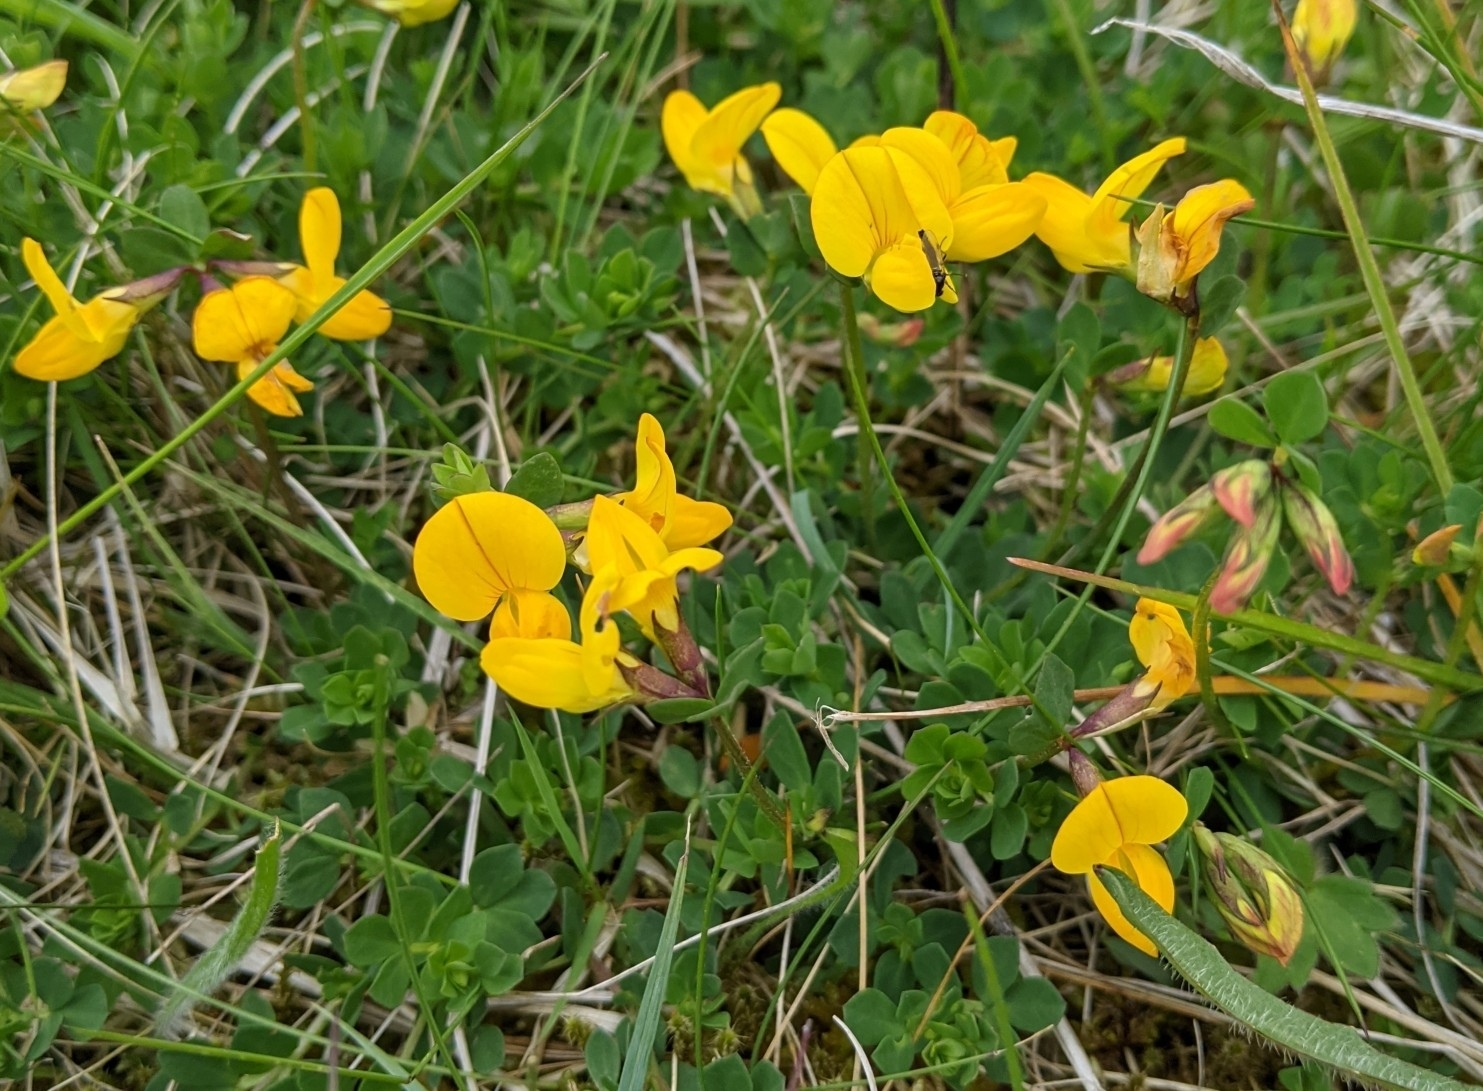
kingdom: Plantae
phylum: Tracheophyta
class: Magnoliopsida
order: Fabales
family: Fabaceae
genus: Lotus
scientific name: Lotus corniculatus
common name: Common bird's-foot-trefoil
